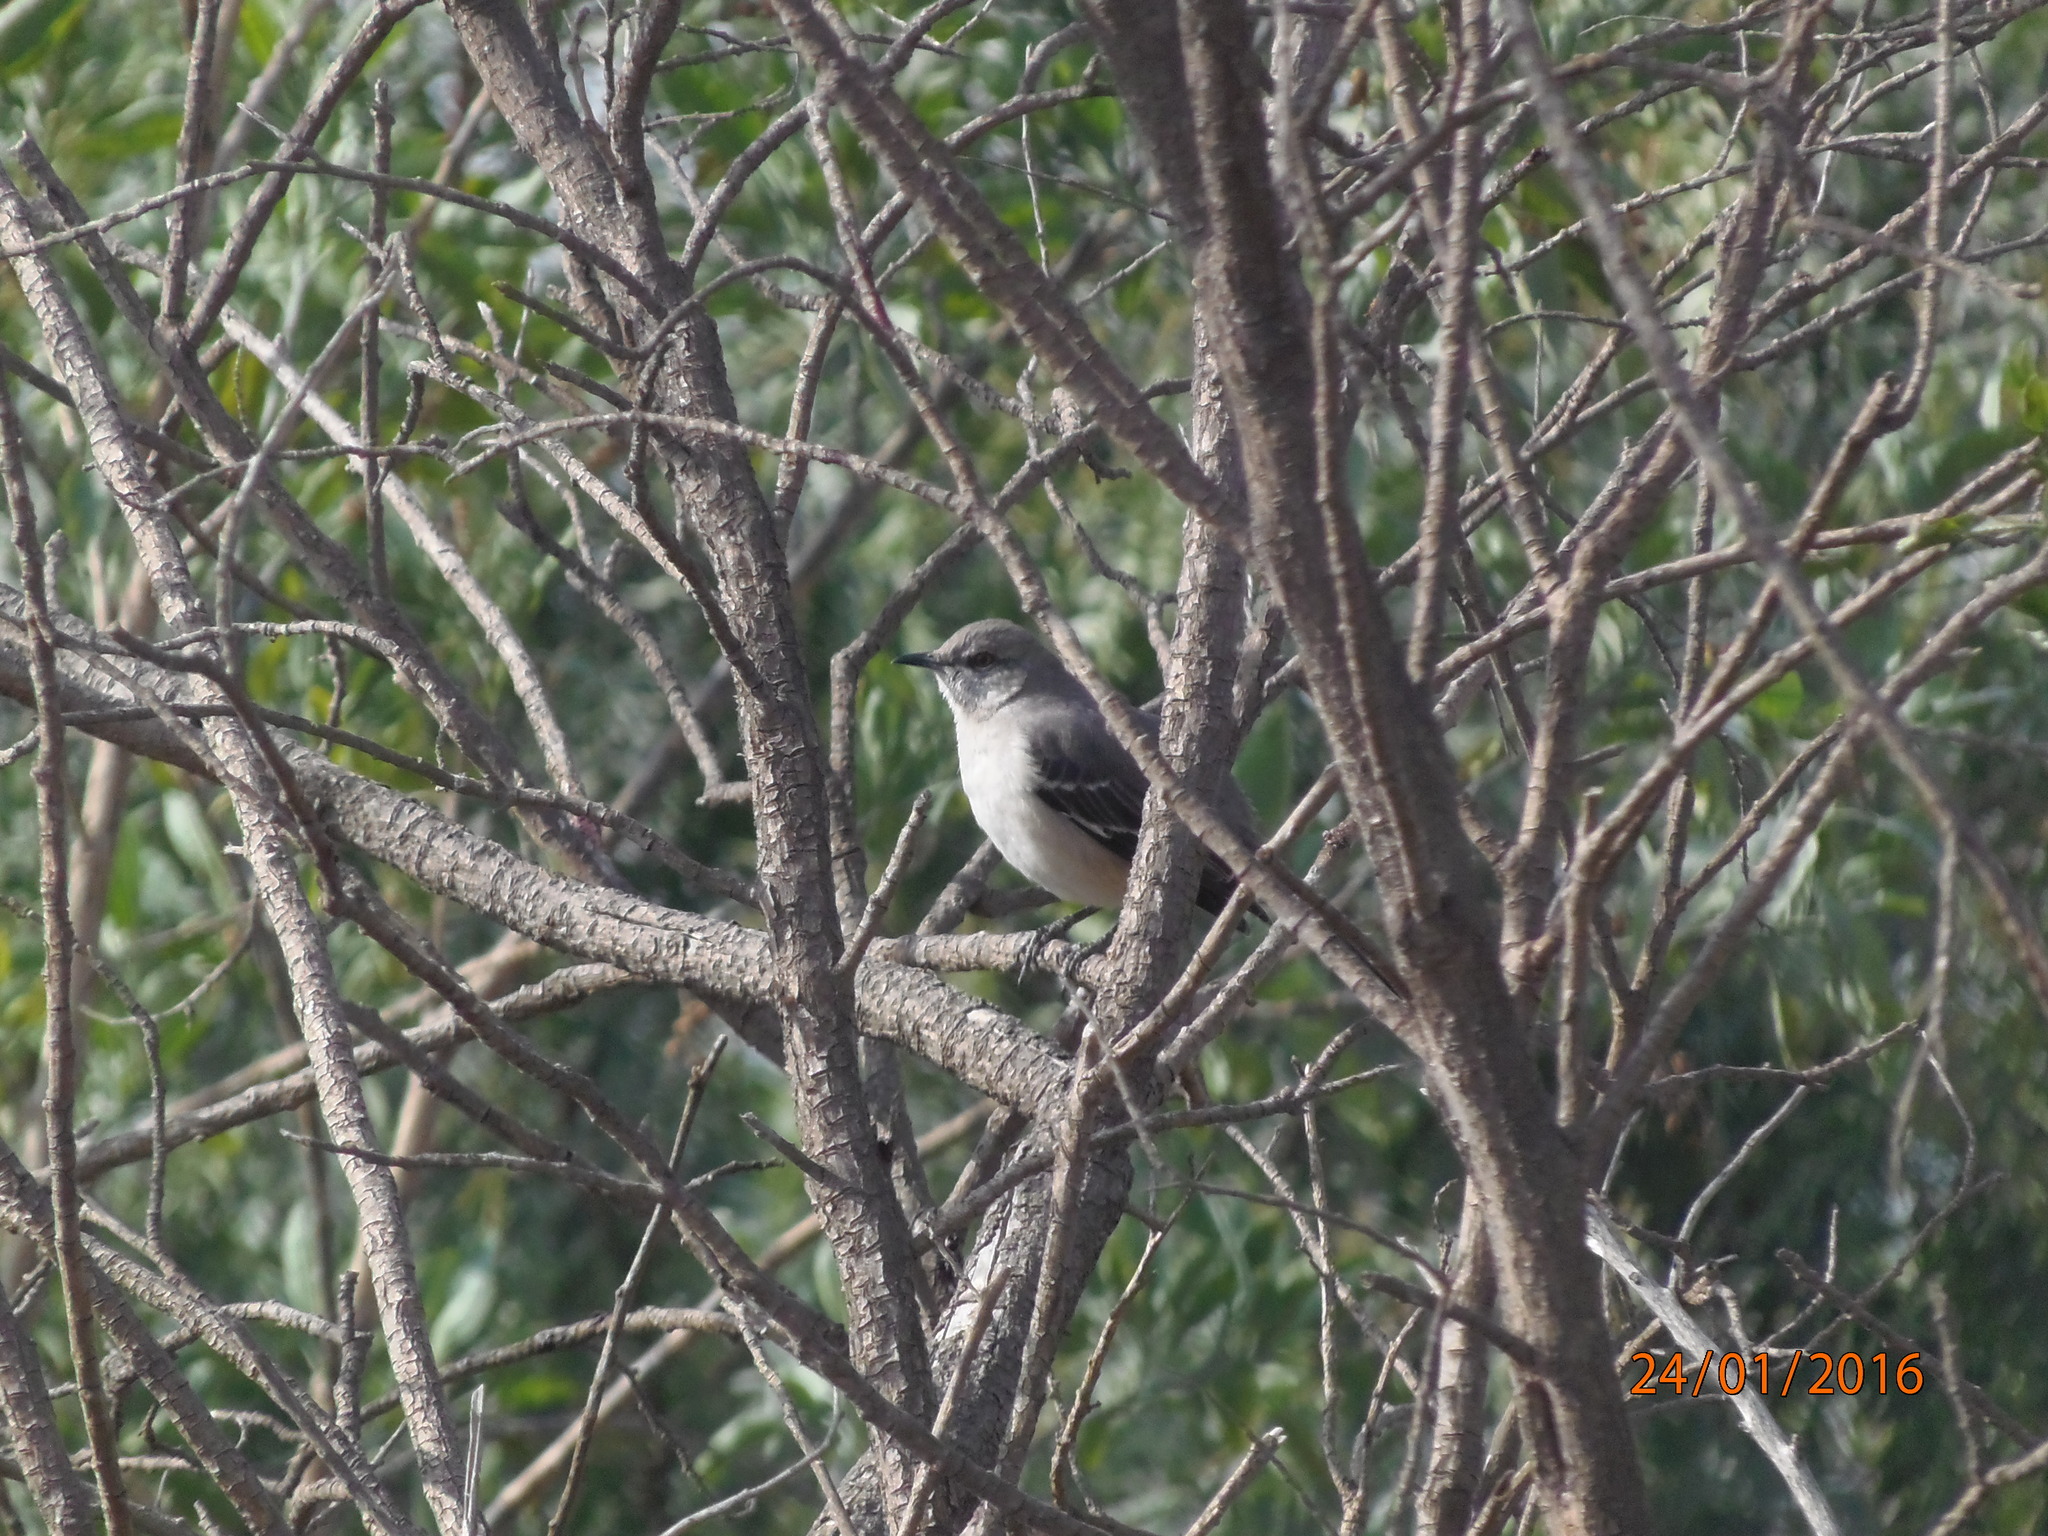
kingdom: Animalia
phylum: Chordata
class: Aves
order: Passeriformes
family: Mimidae
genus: Mimus
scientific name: Mimus polyglottos
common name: Northern mockingbird
